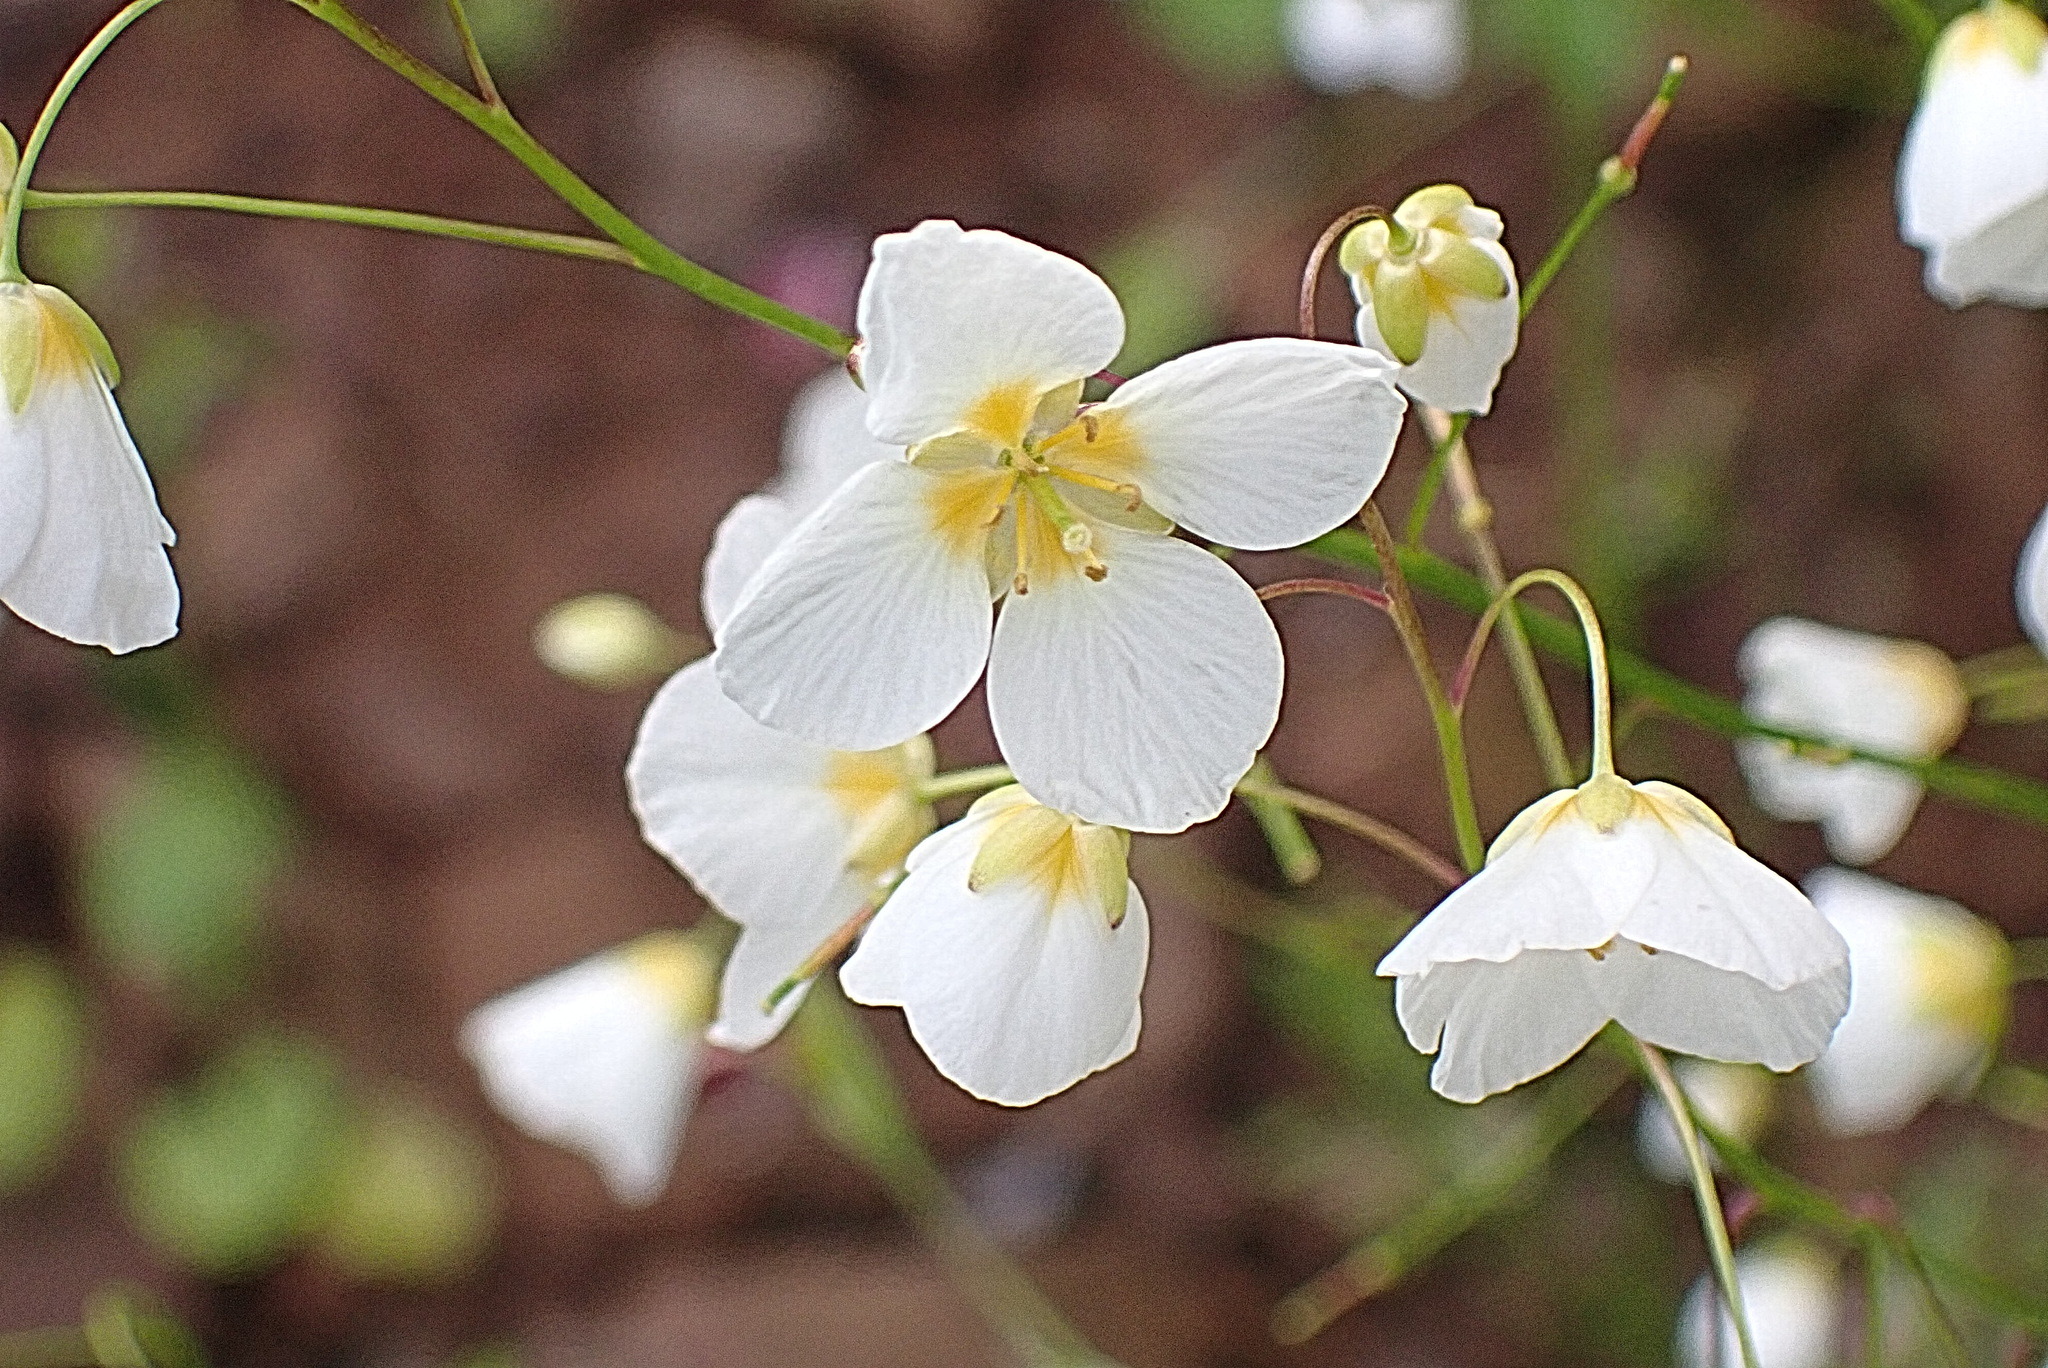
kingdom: Plantae
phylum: Tracheophyta
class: Magnoliopsida
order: Brassicales
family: Brassicaceae
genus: Heliophila
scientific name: Heliophila pendula
